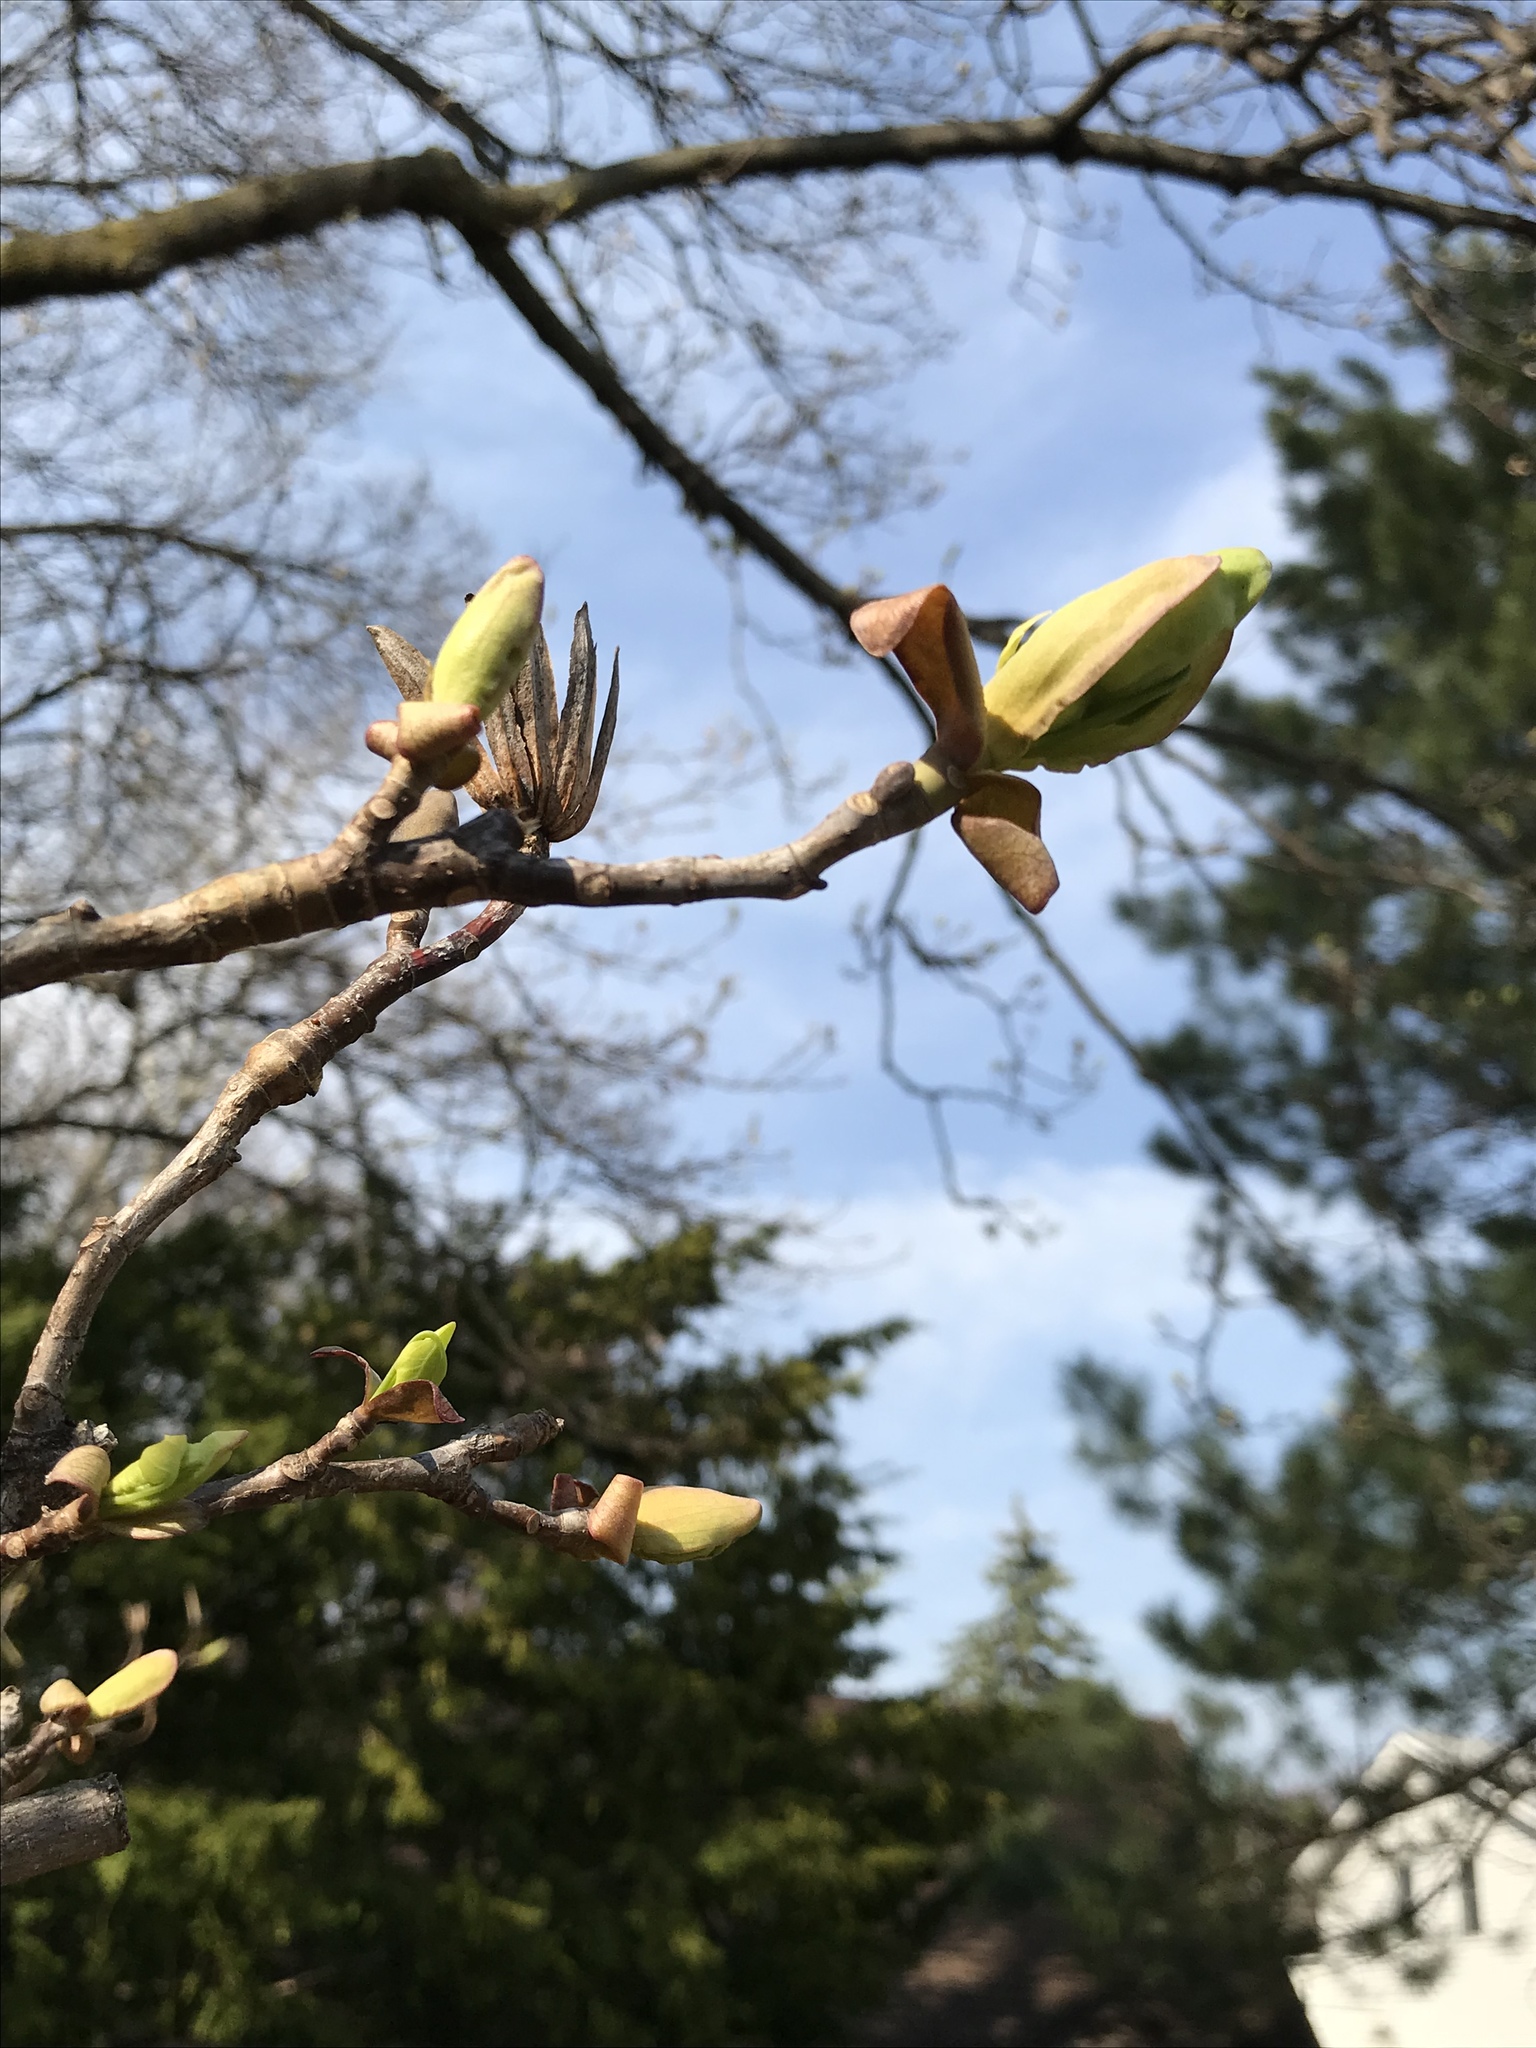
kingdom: Plantae
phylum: Tracheophyta
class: Magnoliopsida
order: Magnoliales
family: Magnoliaceae
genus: Liriodendron
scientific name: Liriodendron tulipifera
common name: Tulip tree
